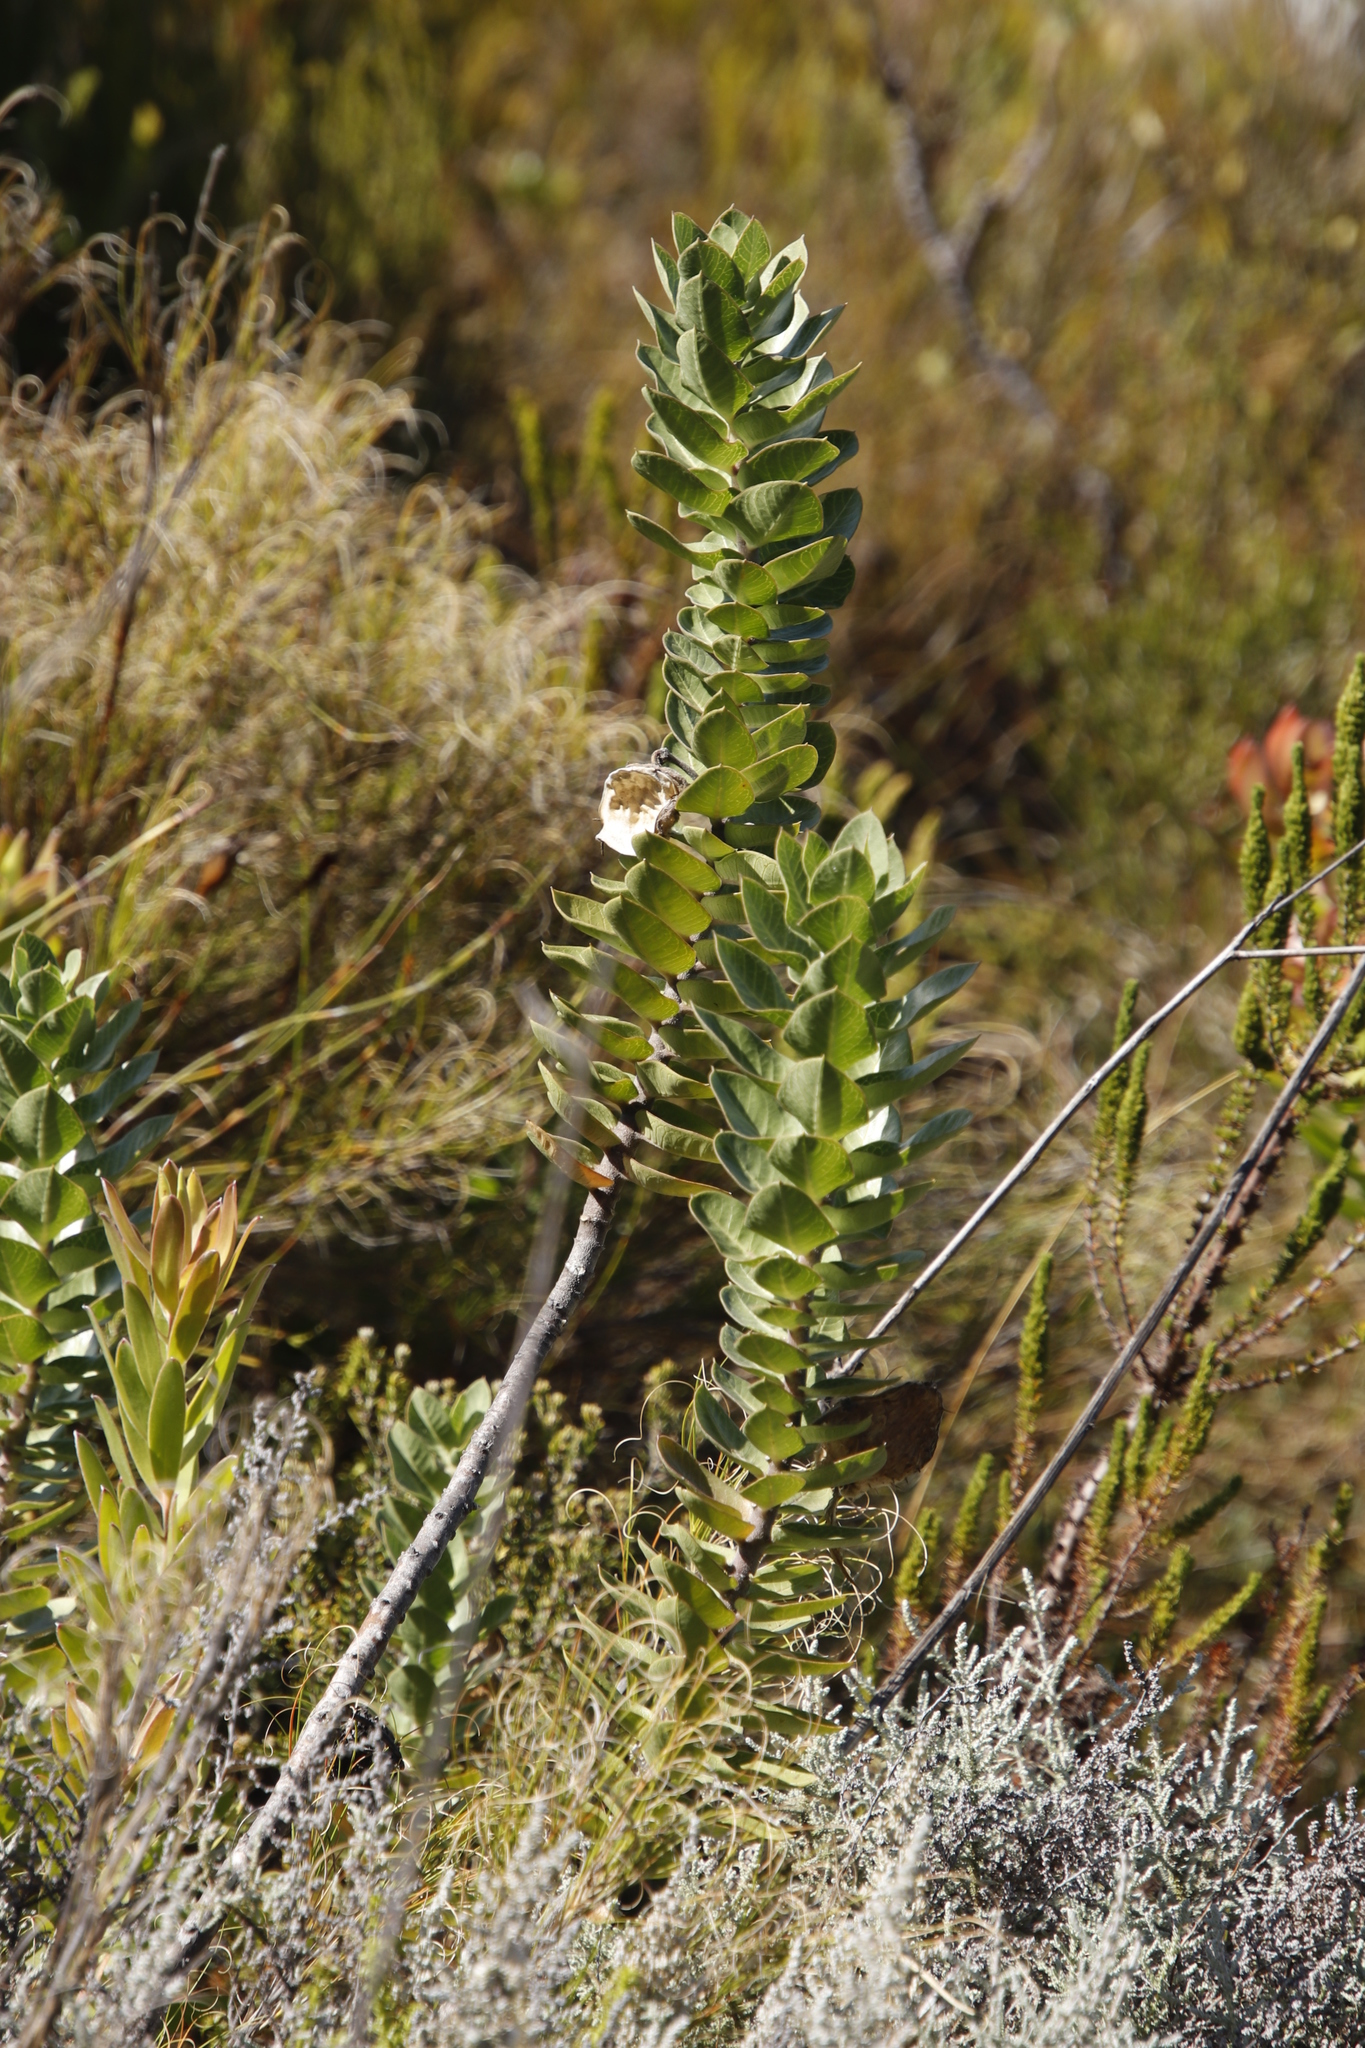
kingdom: Plantae
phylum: Tracheophyta
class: Magnoliopsida
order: Gentianales
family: Apocynaceae
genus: Gomphocarpus
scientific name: Gomphocarpus cancellatus
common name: Wild cotton
